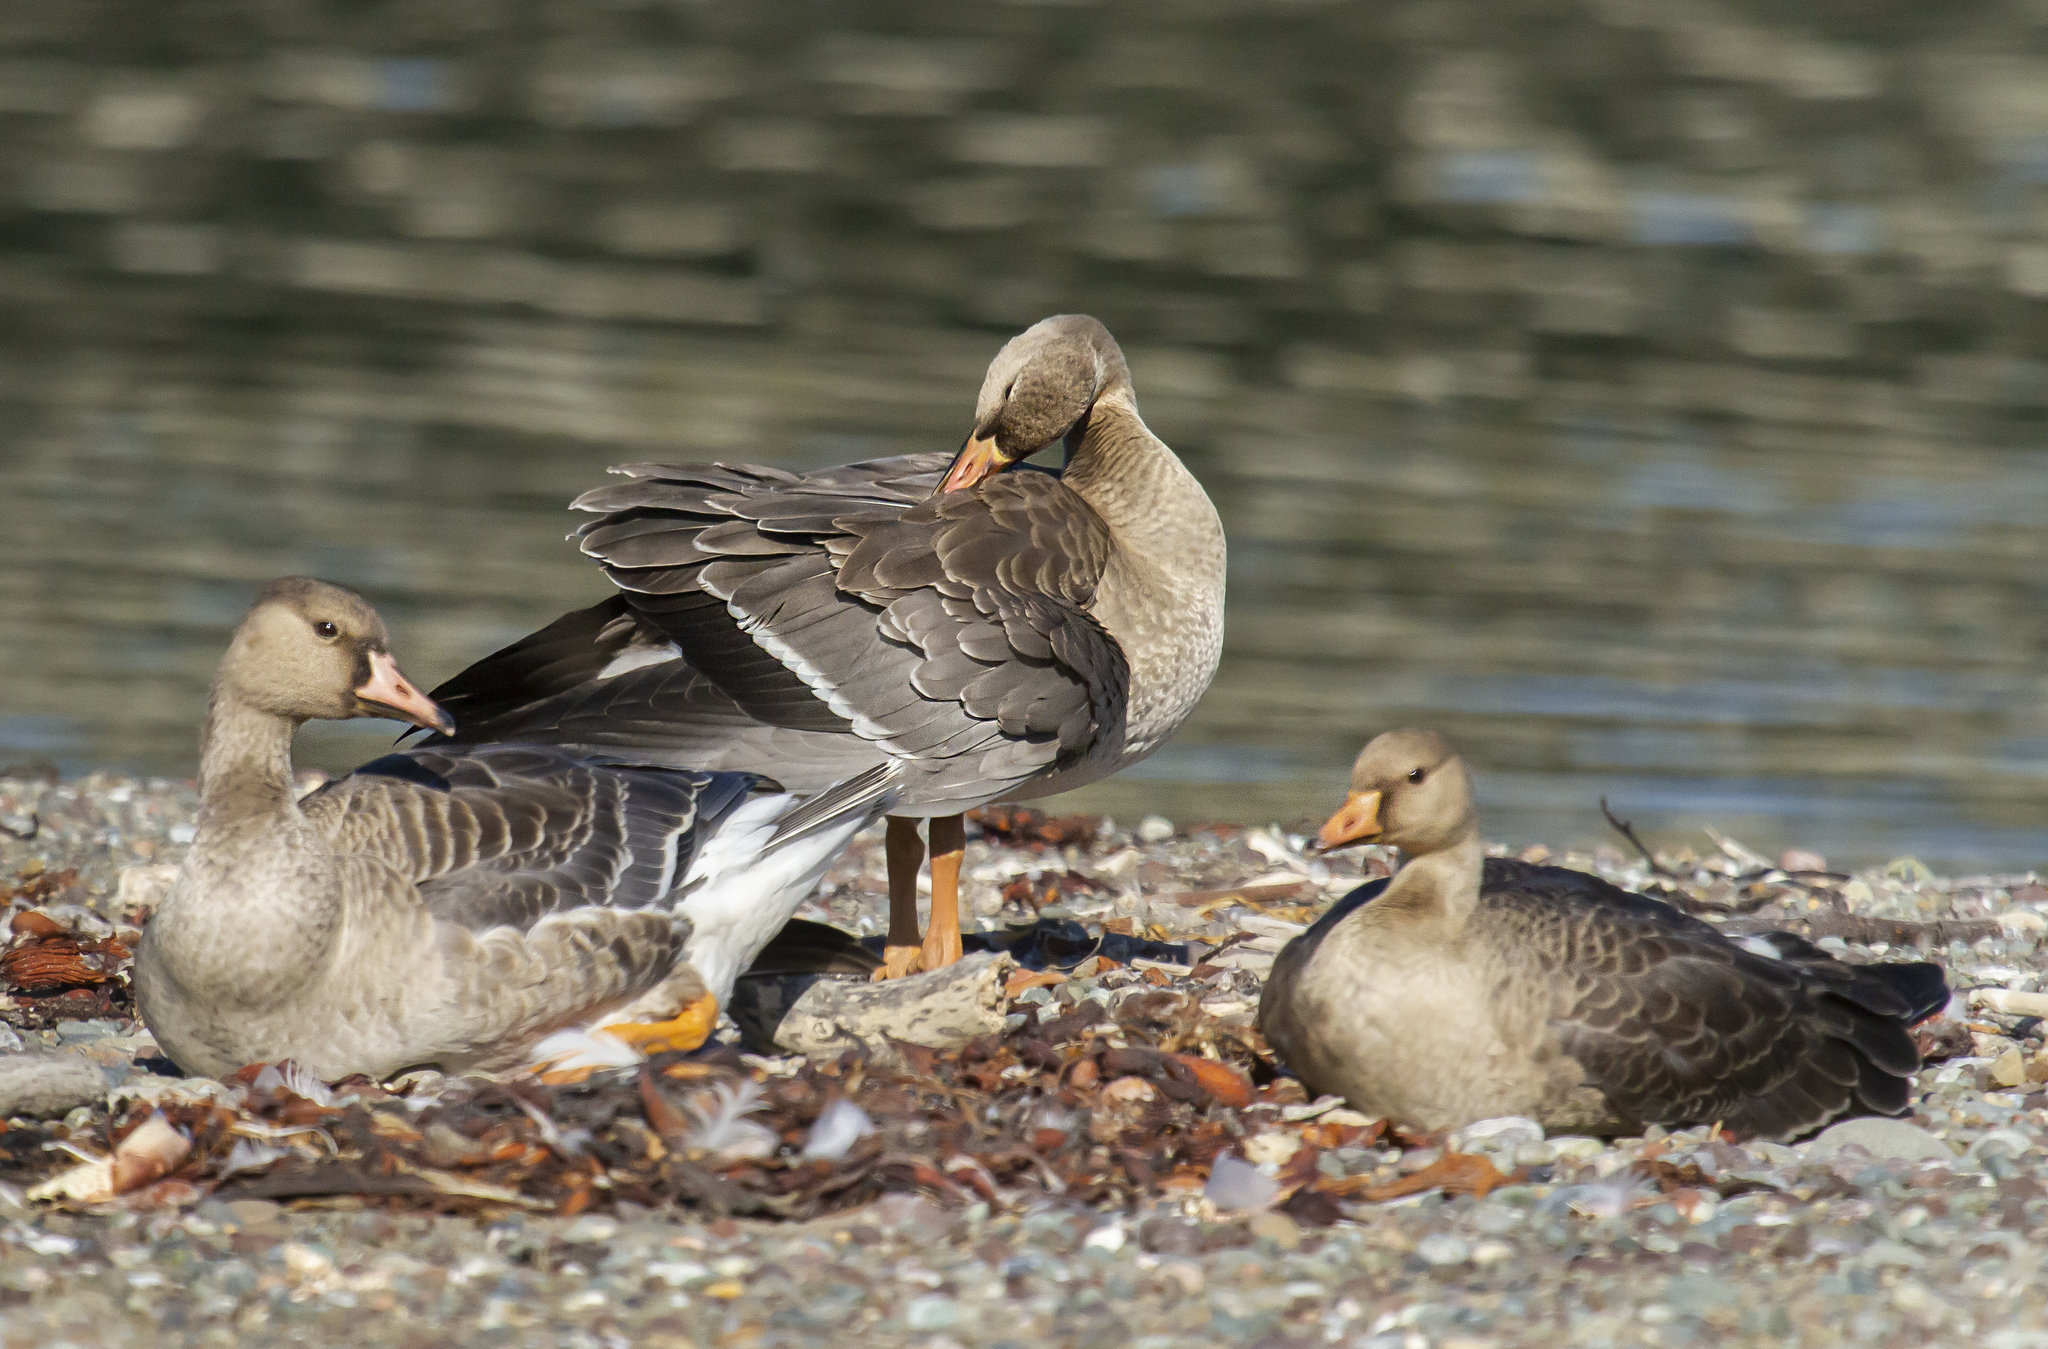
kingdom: Animalia
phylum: Chordata
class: Aves
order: Anseriformes
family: Anatidae
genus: Anser
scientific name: Anser albifrons
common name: Greater white-fronted goose
